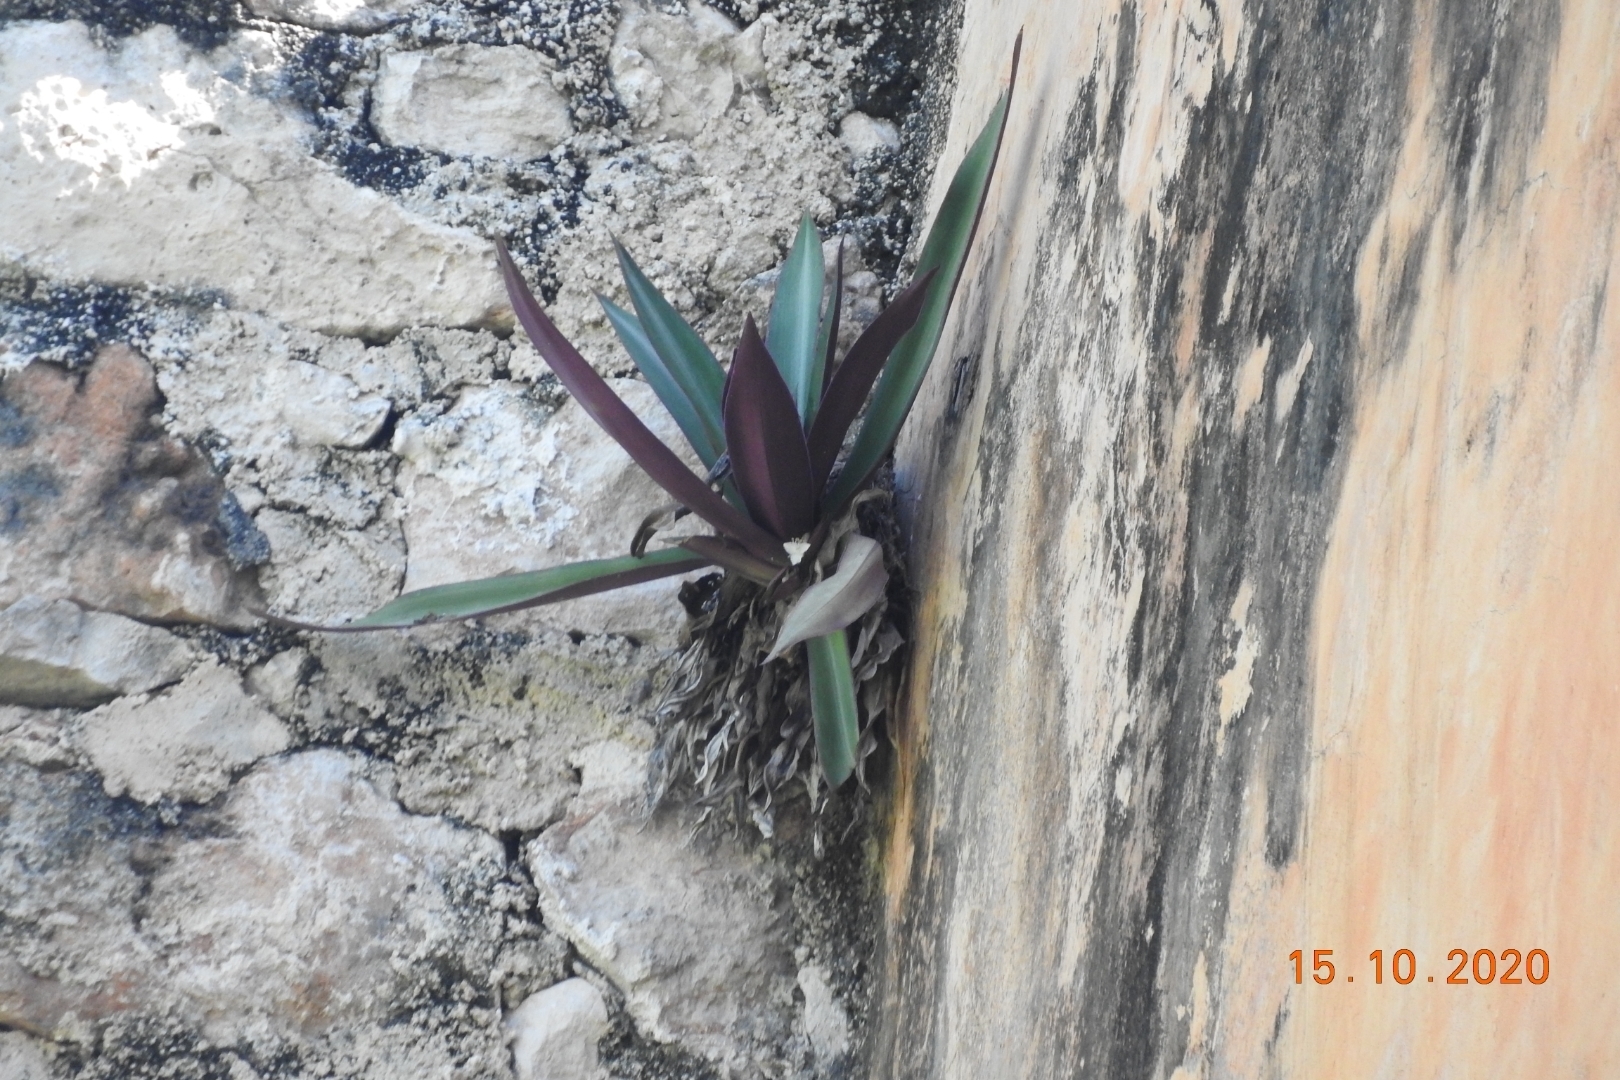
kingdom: Plantae
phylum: Tracheophyta
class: Liliopsida
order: Commelinales
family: Commelinaceae
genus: Tradescantia
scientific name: Tradescantia spathacea
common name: Boatlily
